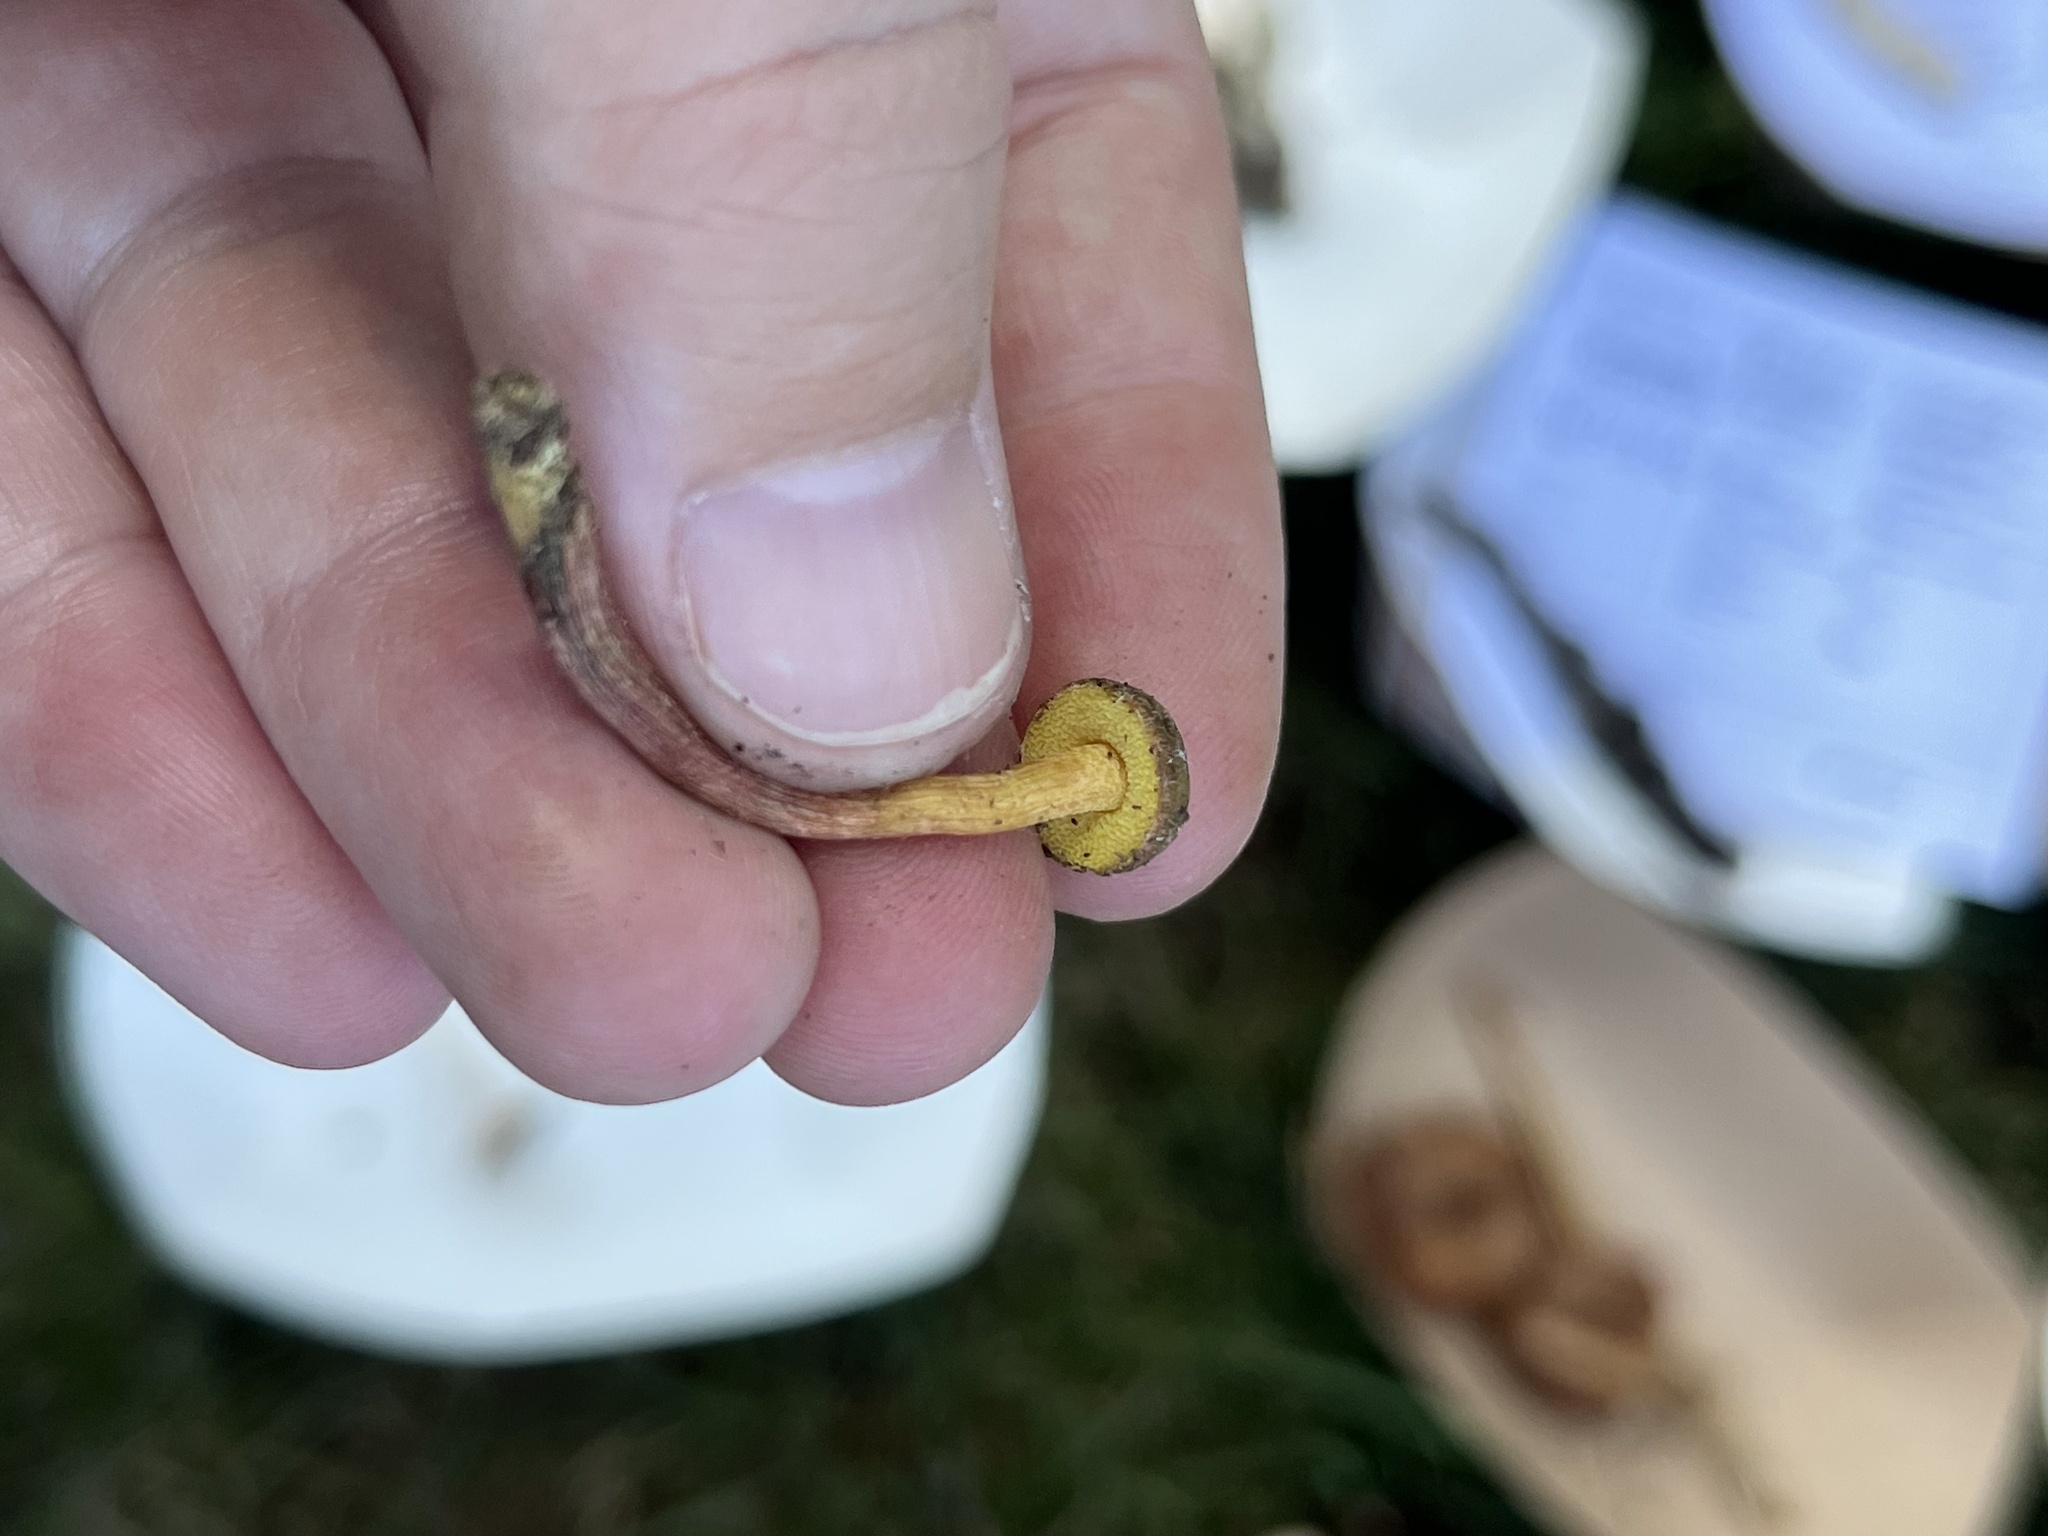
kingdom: Fungi
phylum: Basidiomycota
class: Agaricomycetes
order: Boletales
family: Boletaceae
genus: Boletellus
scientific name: Boletellus chrysenteroides
